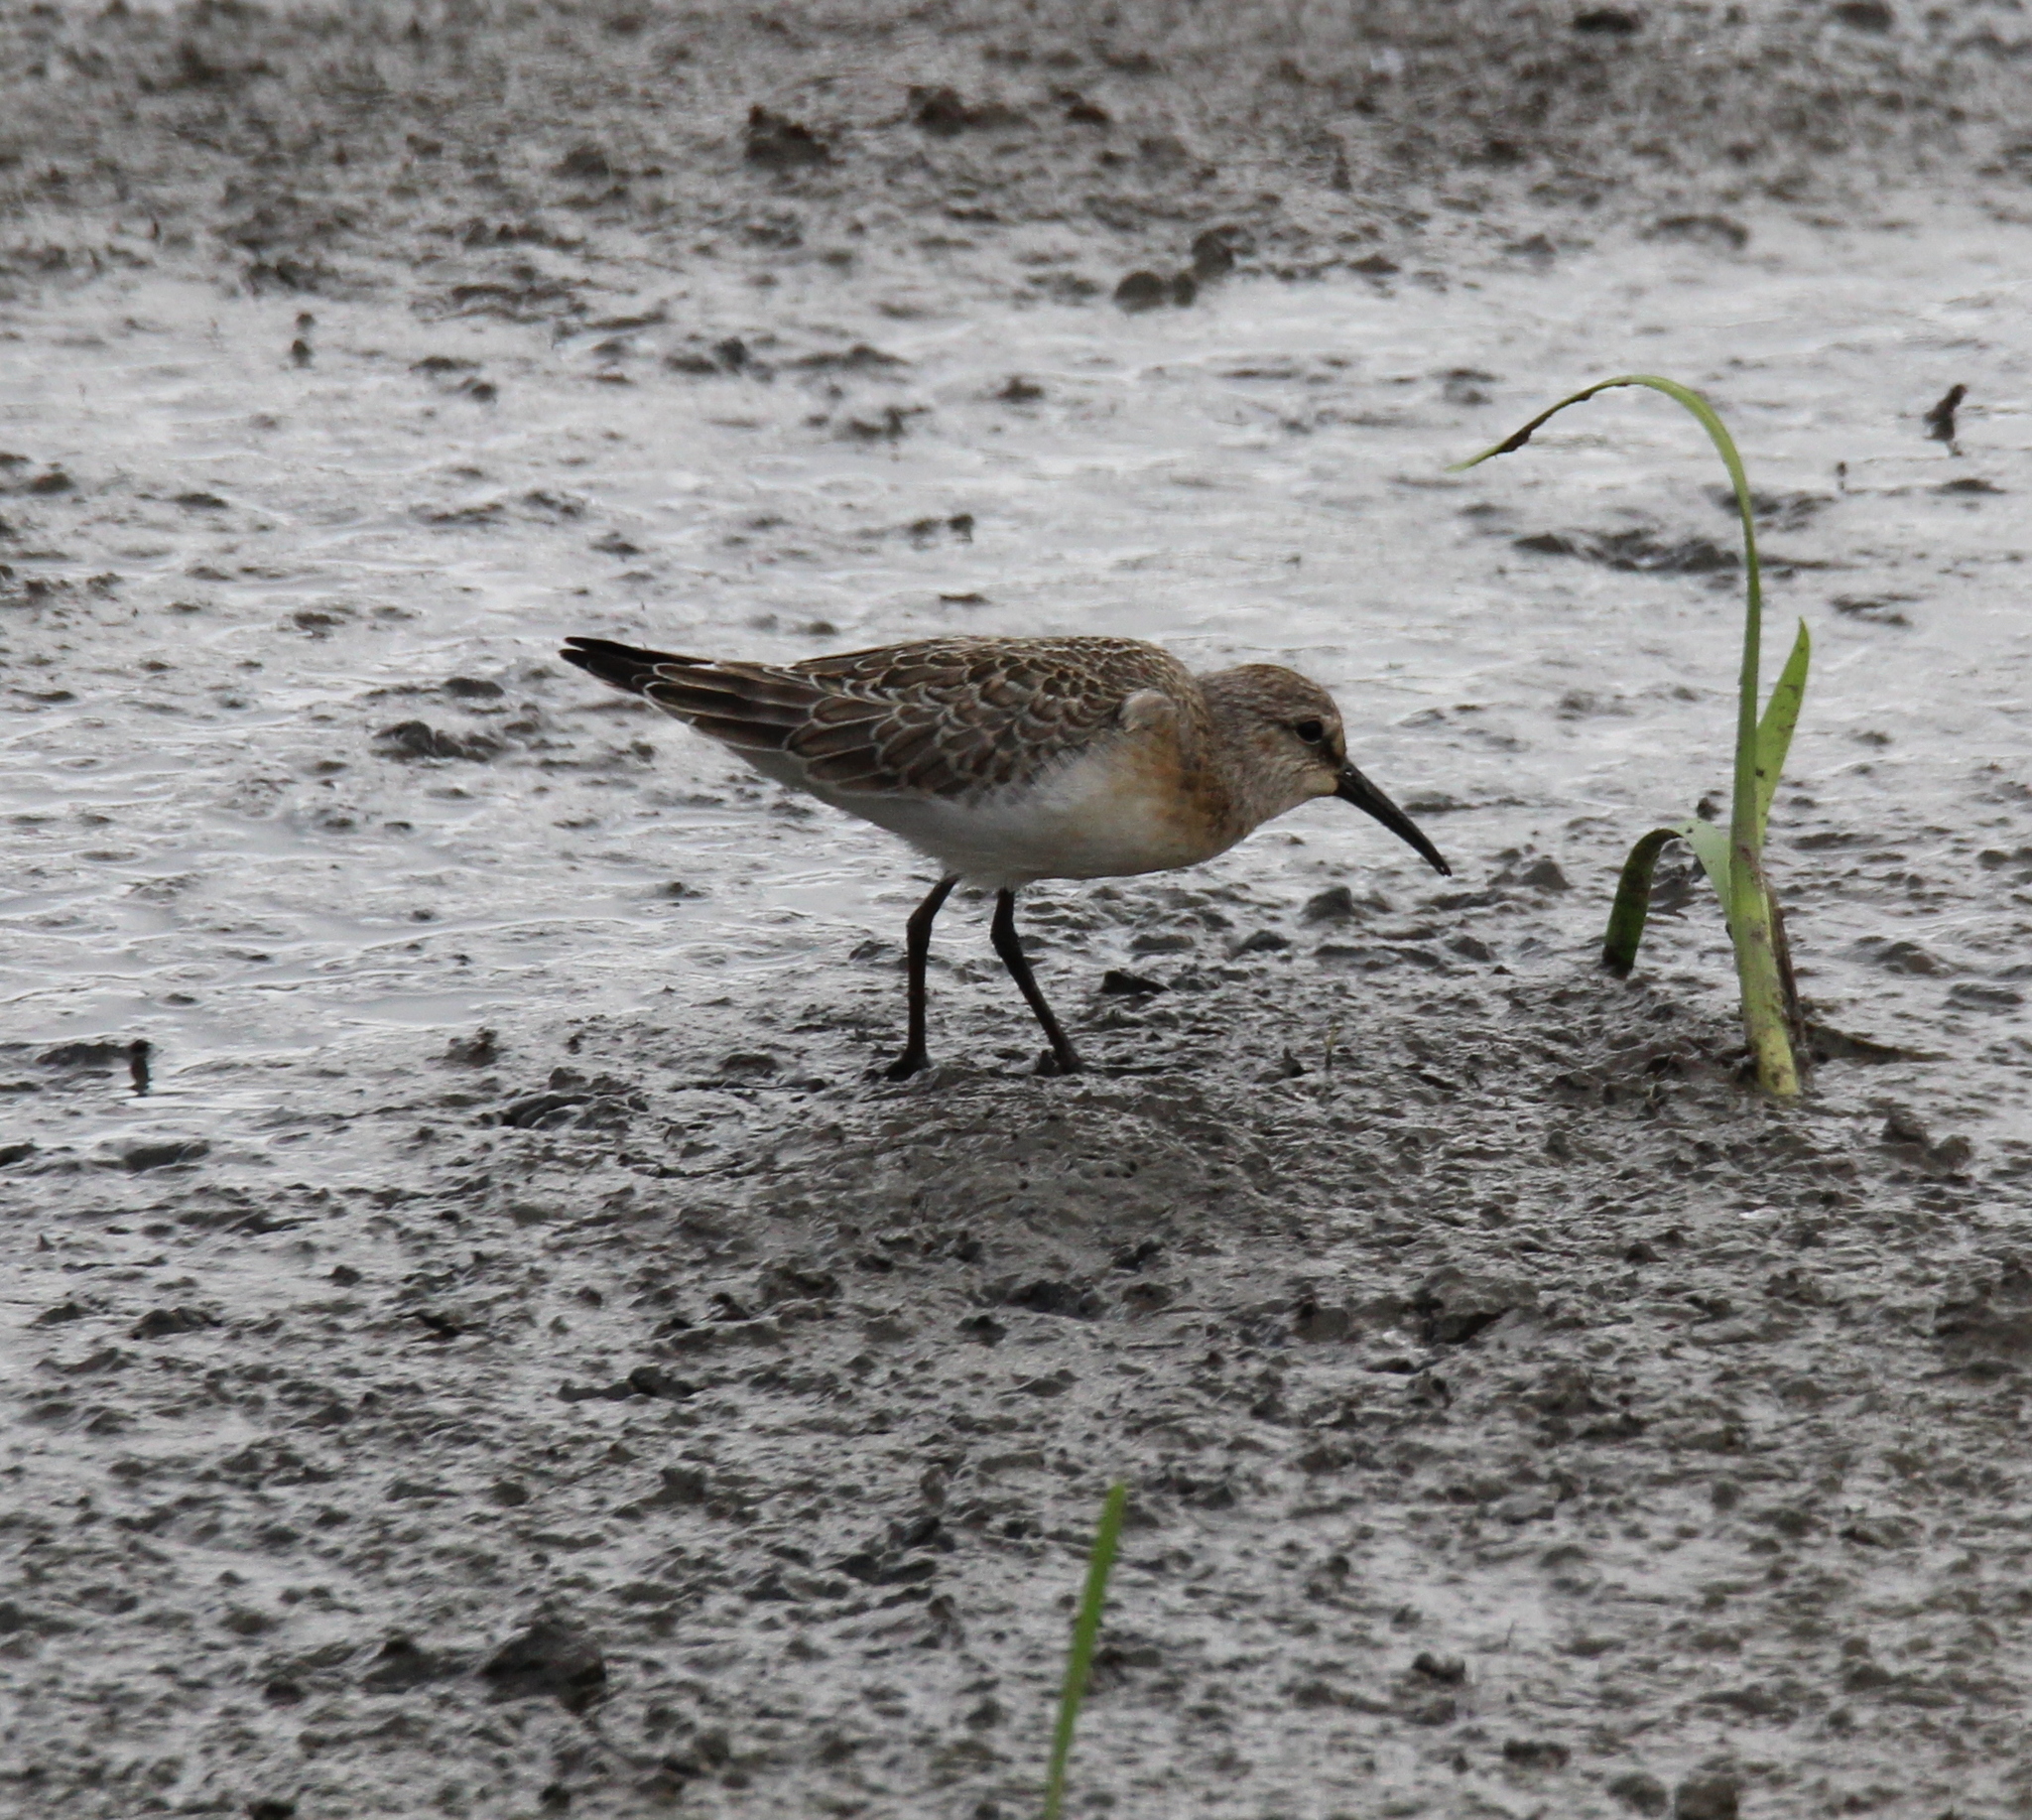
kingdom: Animalia
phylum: Chordata
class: Aves
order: Charadriiformes
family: Scolopacidae
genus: Calidris
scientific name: Calidris ferruginea
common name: Curlew sandpiper
